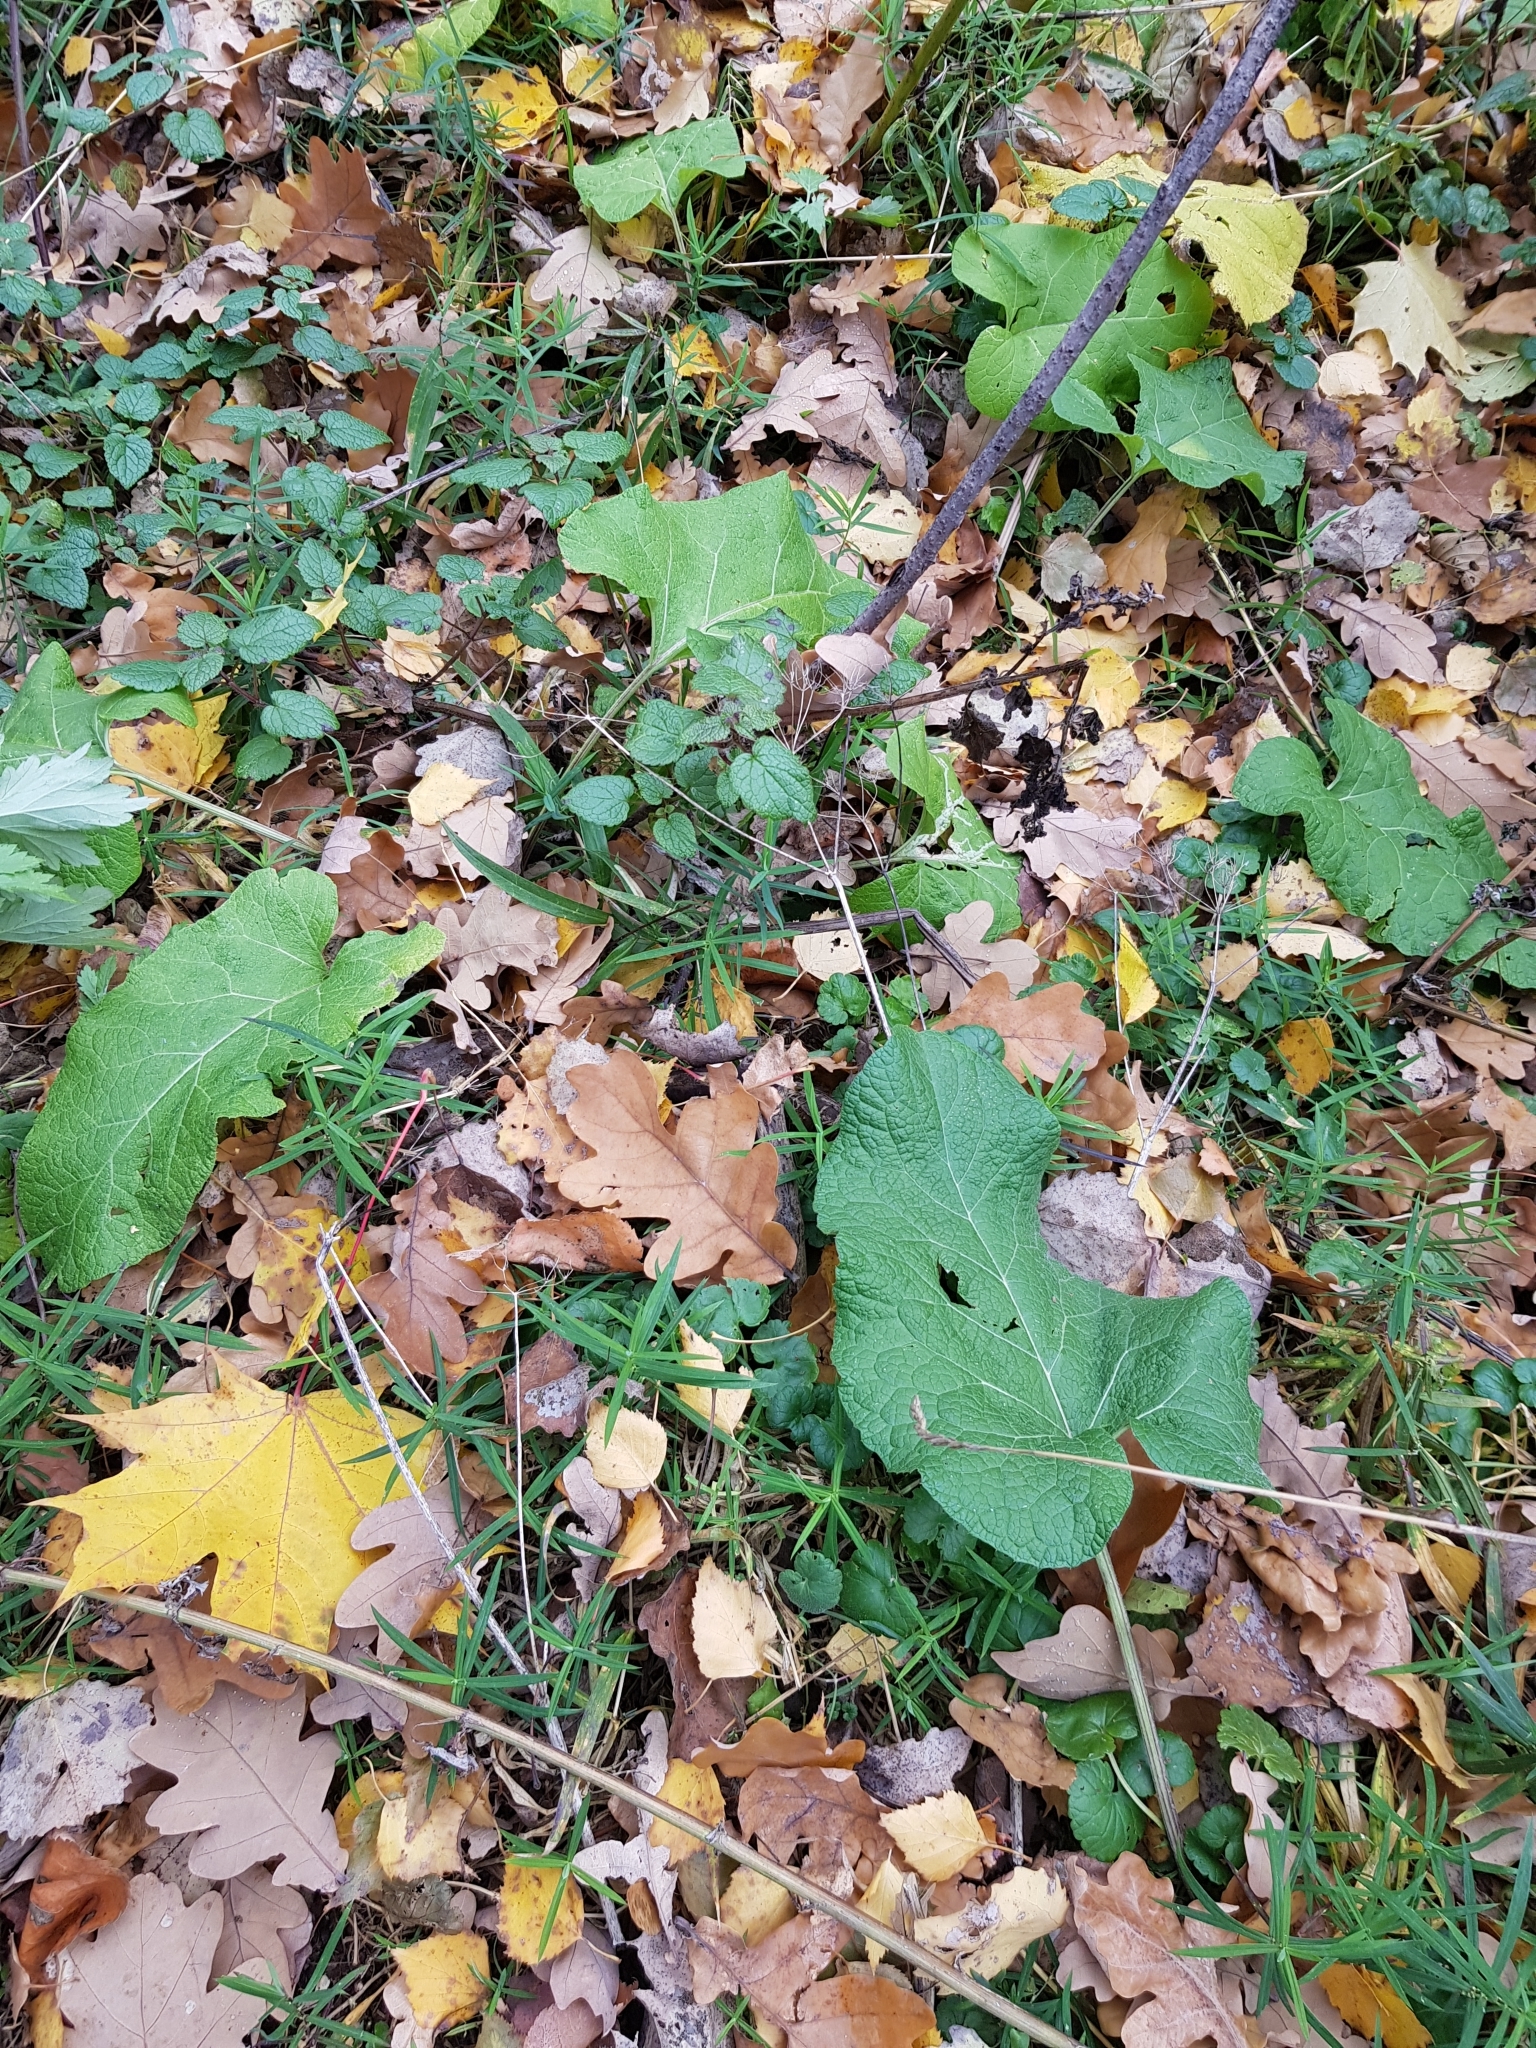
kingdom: Plantae
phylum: Tracheophyta
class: Magnoliopsida
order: Asterales
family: Asteraceae
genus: Arctium
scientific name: Arctium
